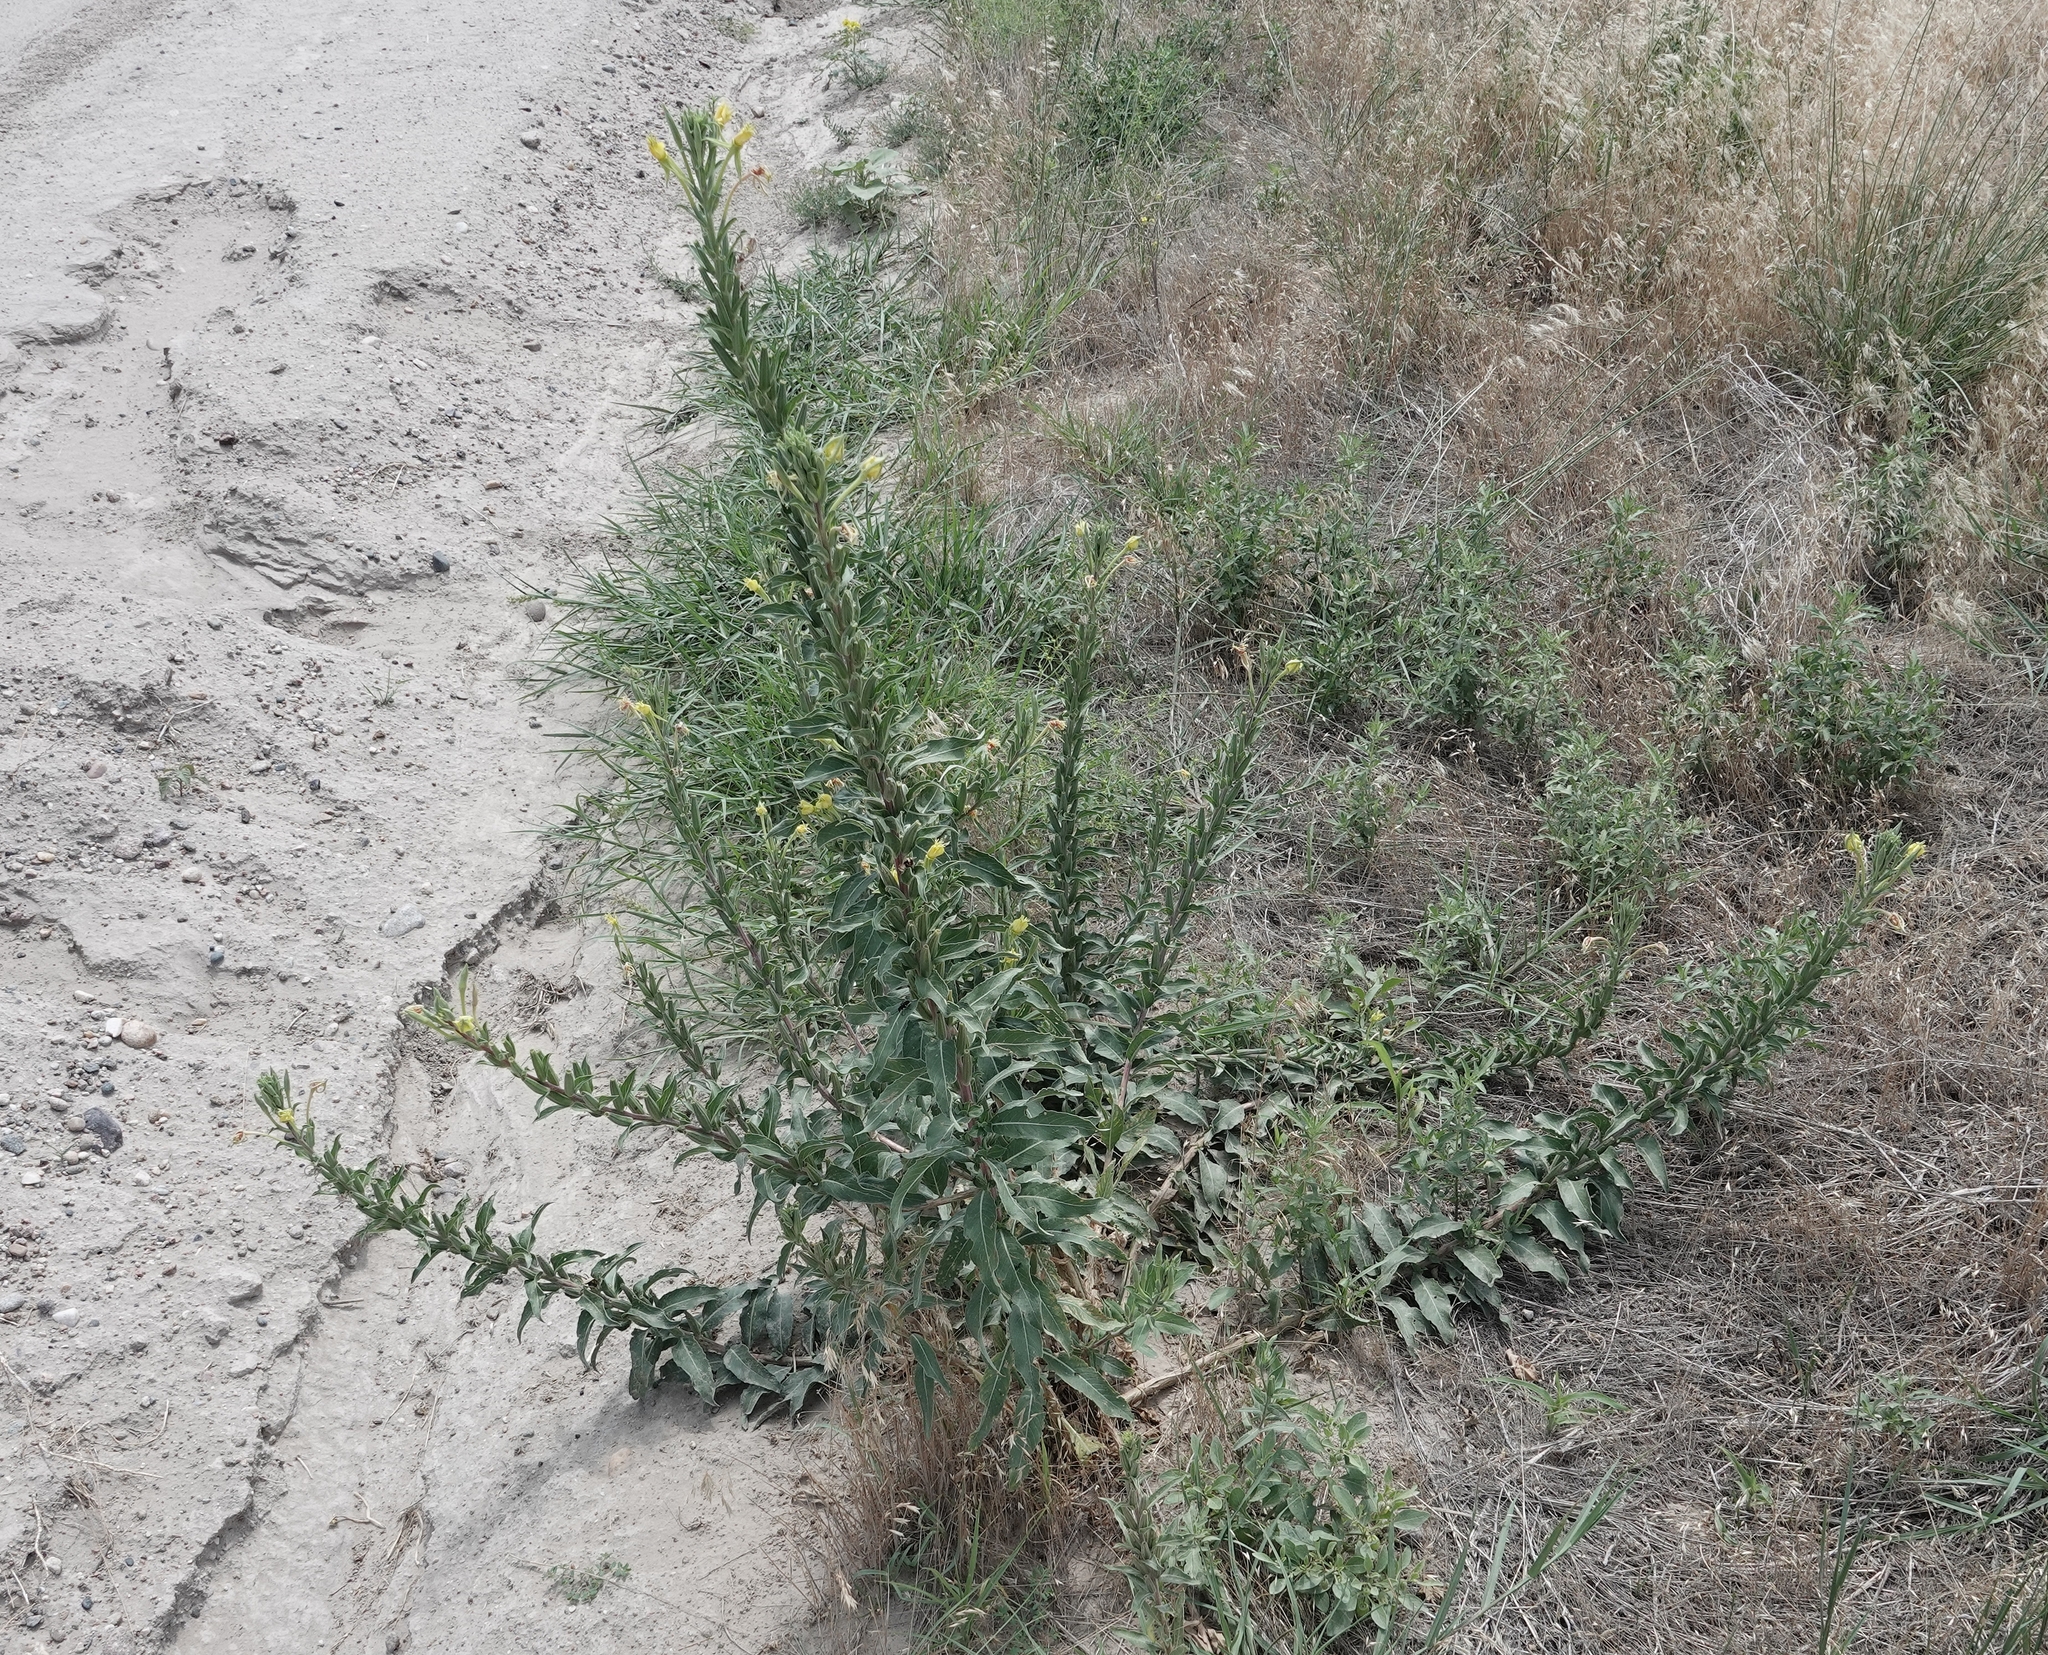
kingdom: Plantae
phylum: Tracheophyta
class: Magnoliopsida
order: Myrtales
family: Onagraceae
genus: Oenothera
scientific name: Oenothera villosa
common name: Hairy evening-primrose
